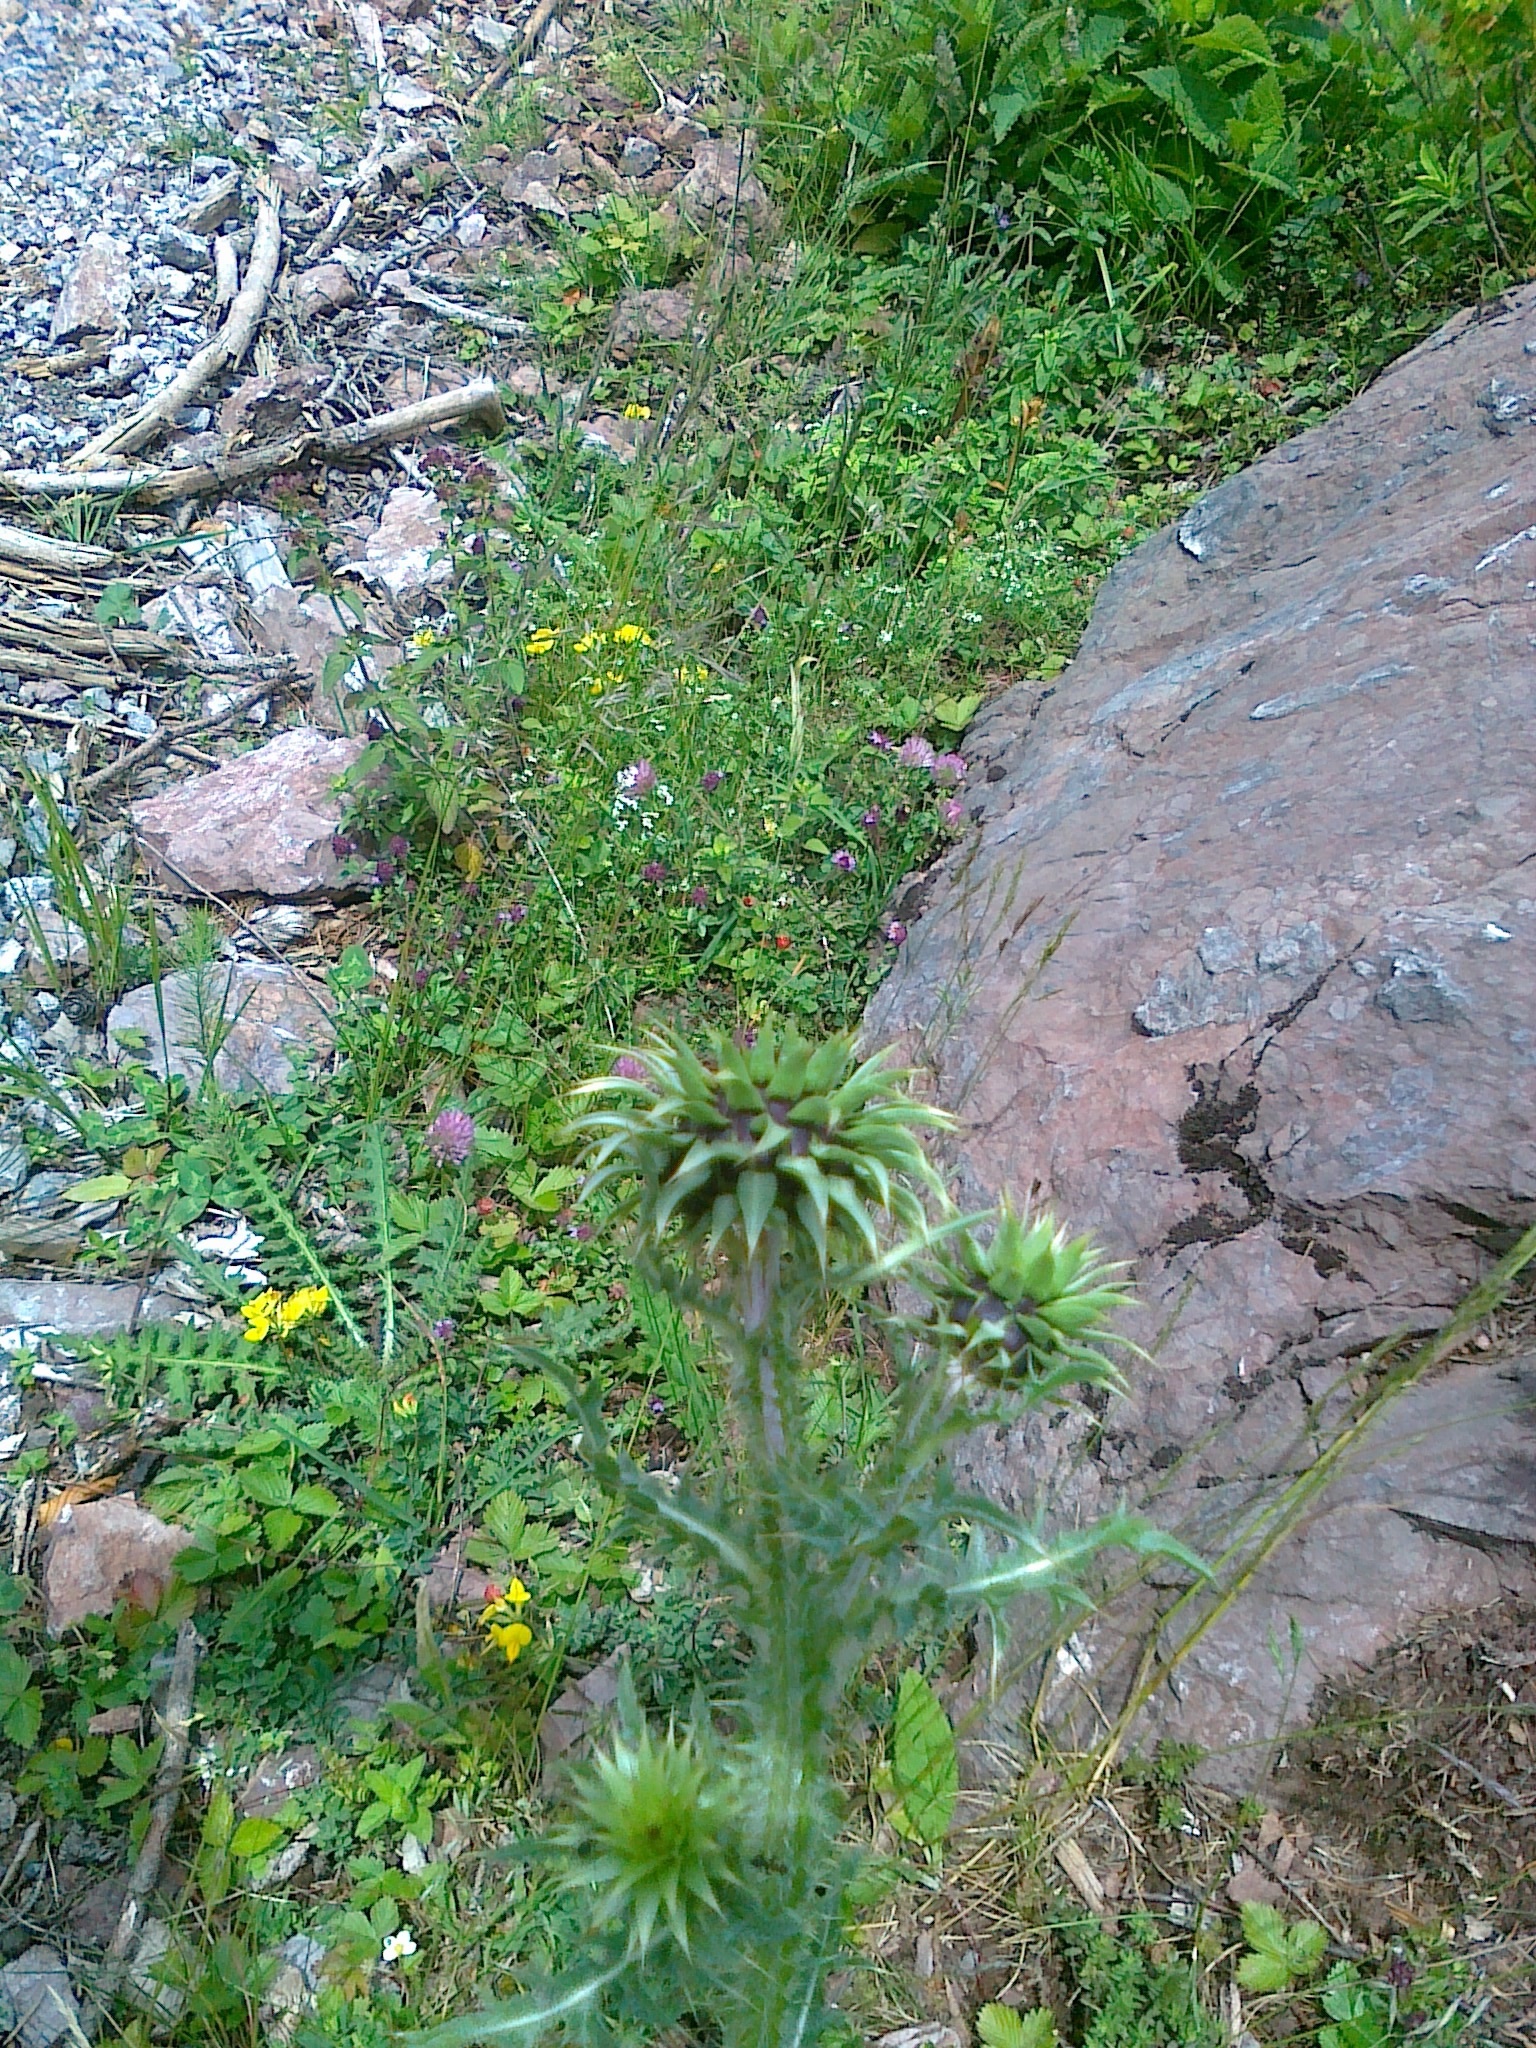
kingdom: Plantae
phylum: Tracheophyta
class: Magnoliopsida
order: Asterales
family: Asteraceae
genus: Carduus
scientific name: Carduus nutans
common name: Musk thistle
